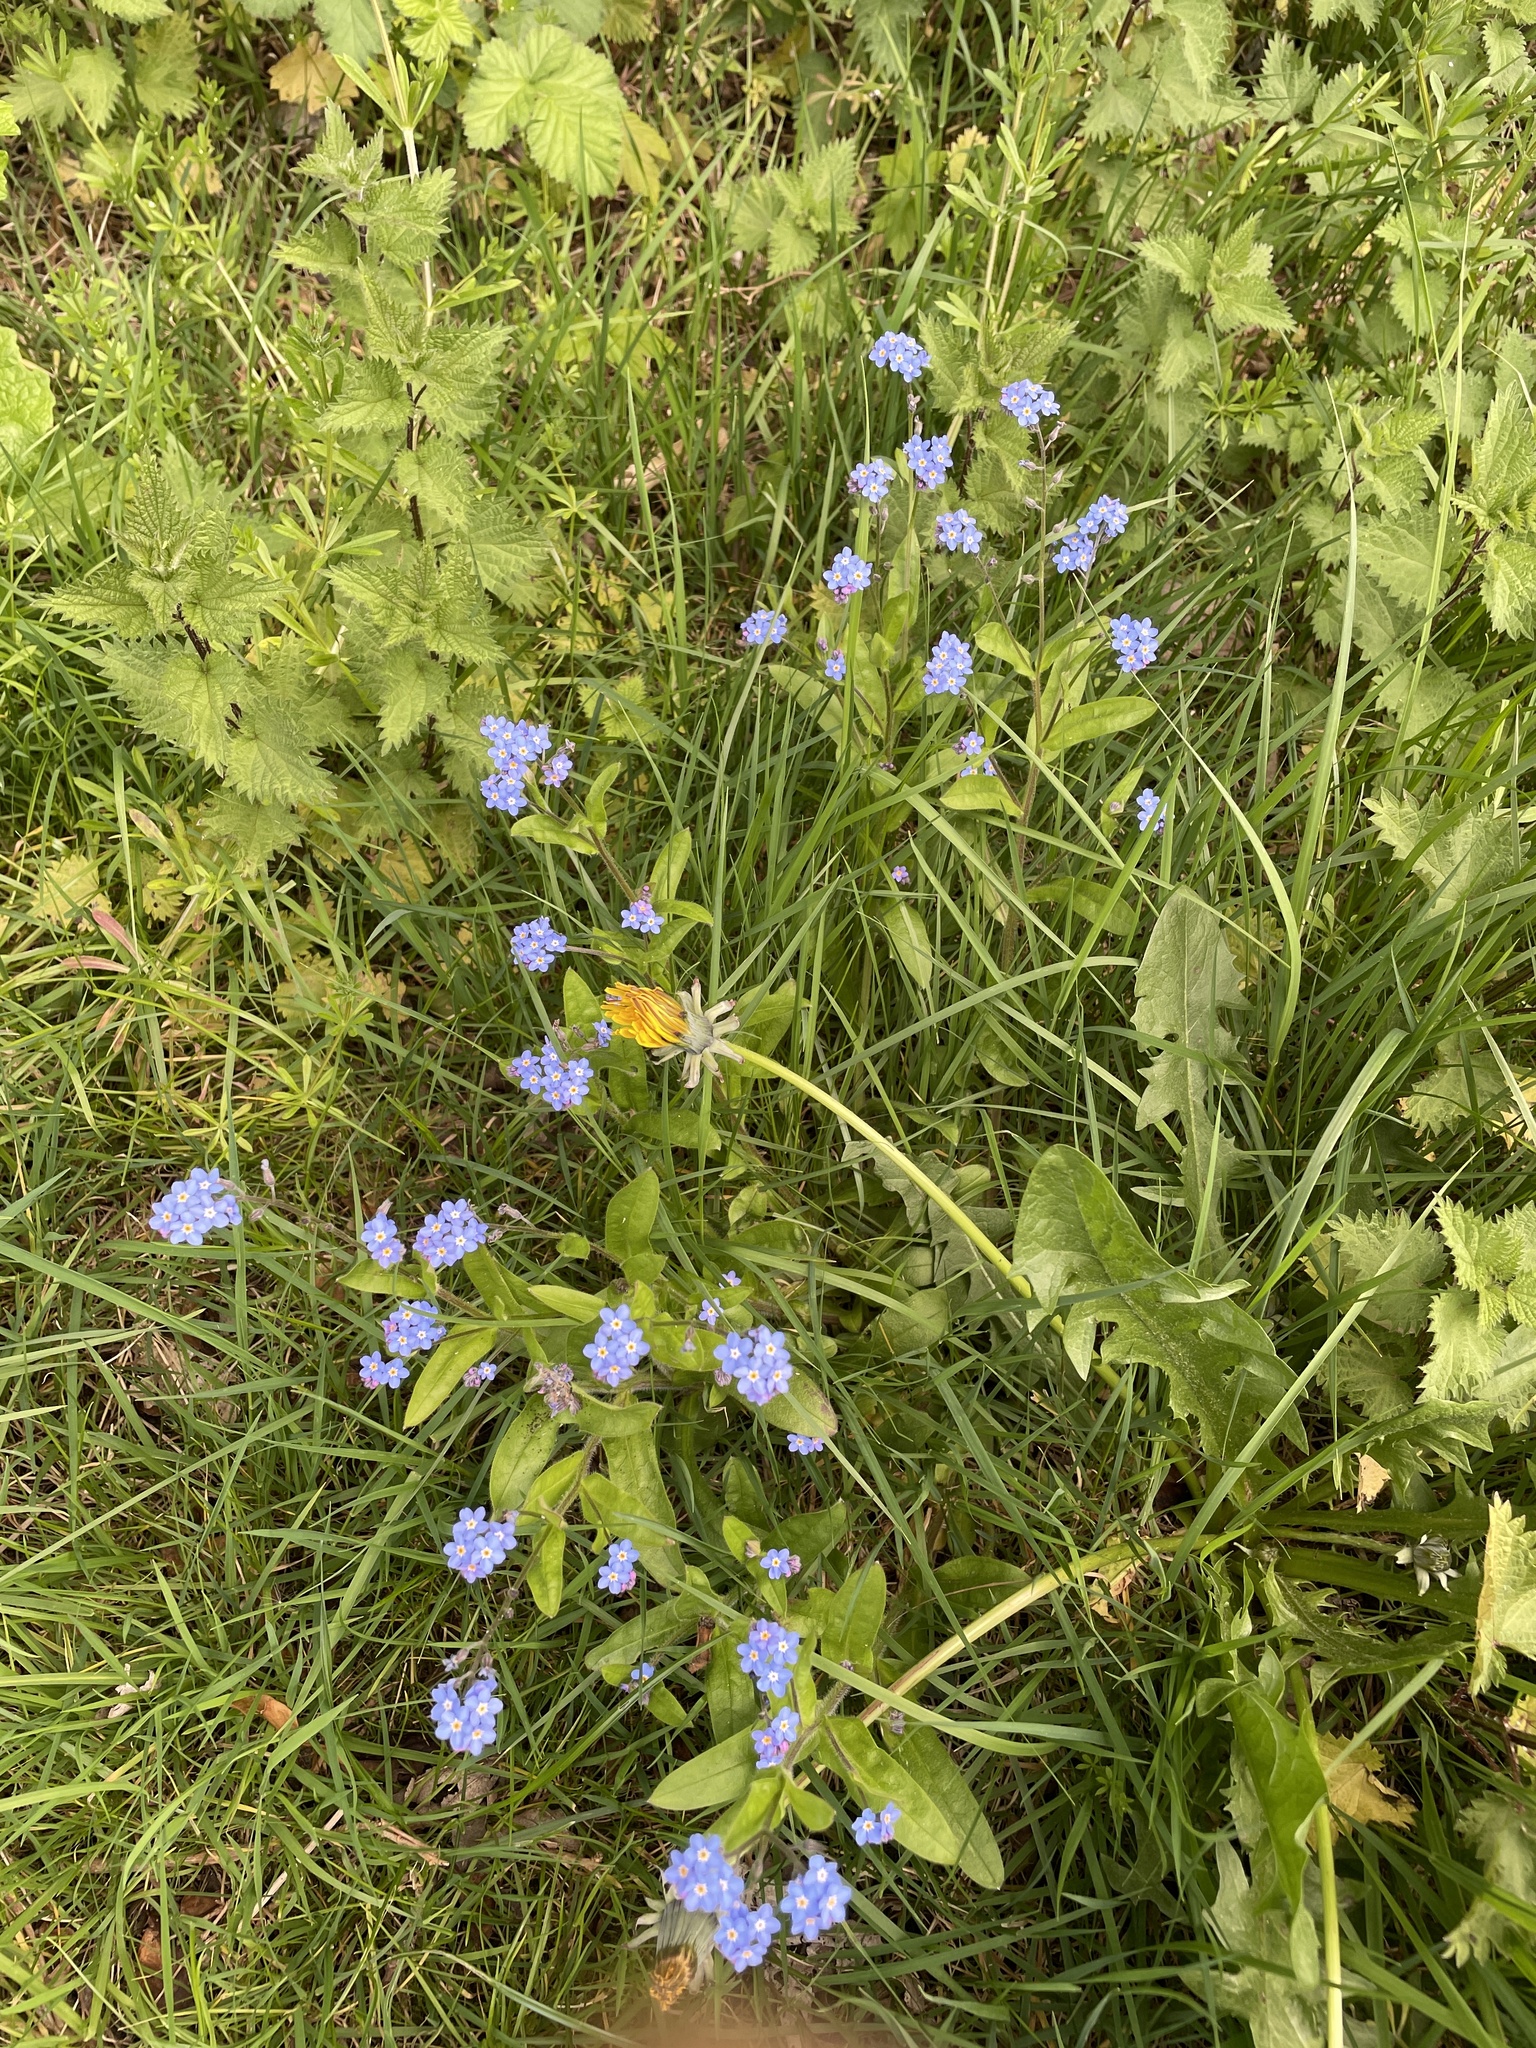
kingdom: Plantae
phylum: Tracheophyta
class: Magnoliopsida
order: Boraginales
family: Boraginaceae
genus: Myosotis
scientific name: Myosotis sylvatica
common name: Wood forget-me-not
